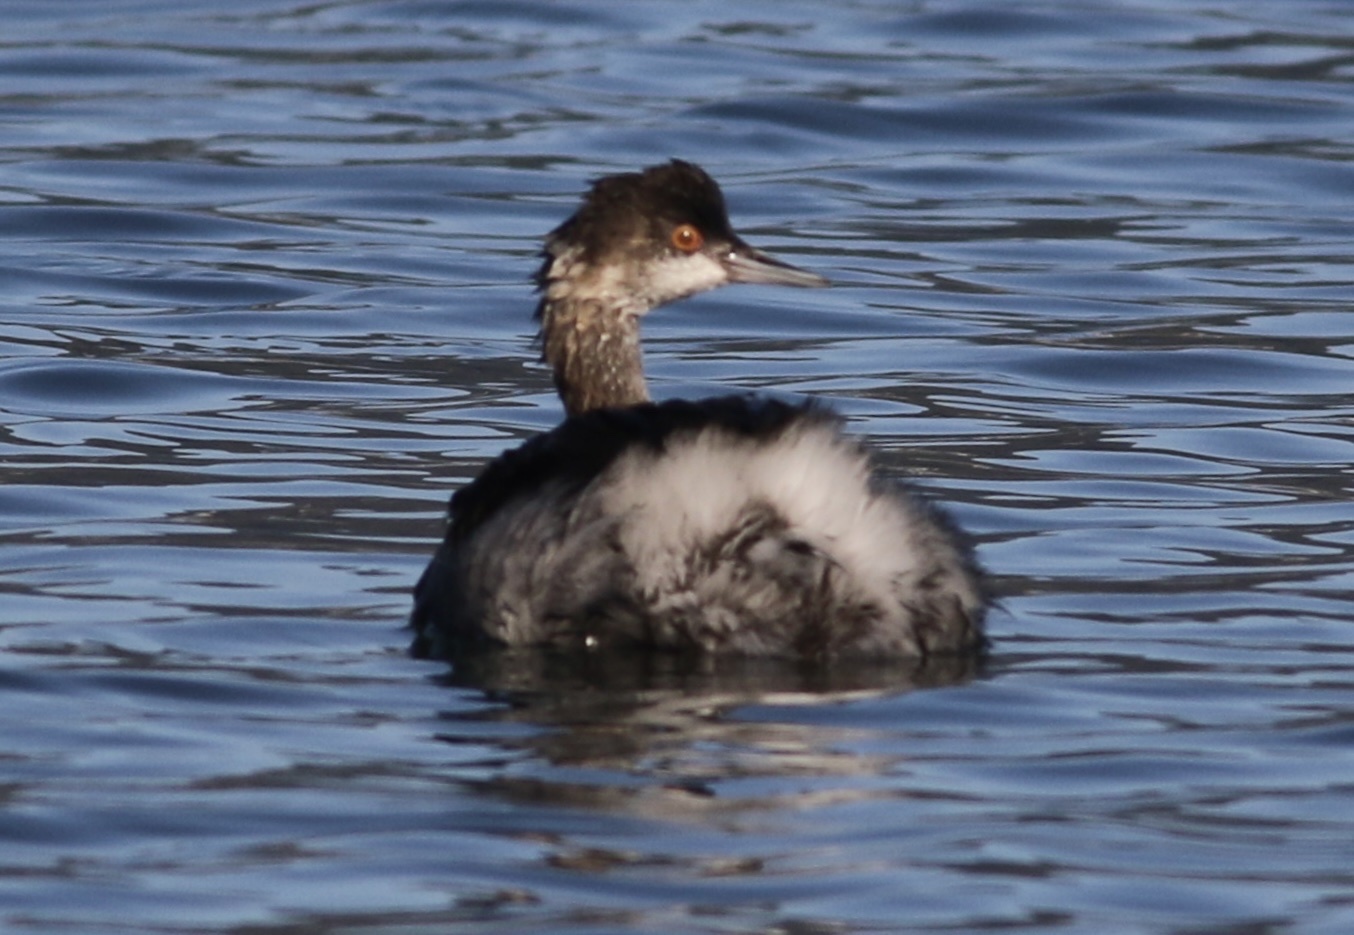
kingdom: Animalia
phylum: Chordata
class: Aves
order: Podicipediformes
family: Podicipedidae
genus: Podiceps
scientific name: Podiceps nigricollis
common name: Black-necked grebe
